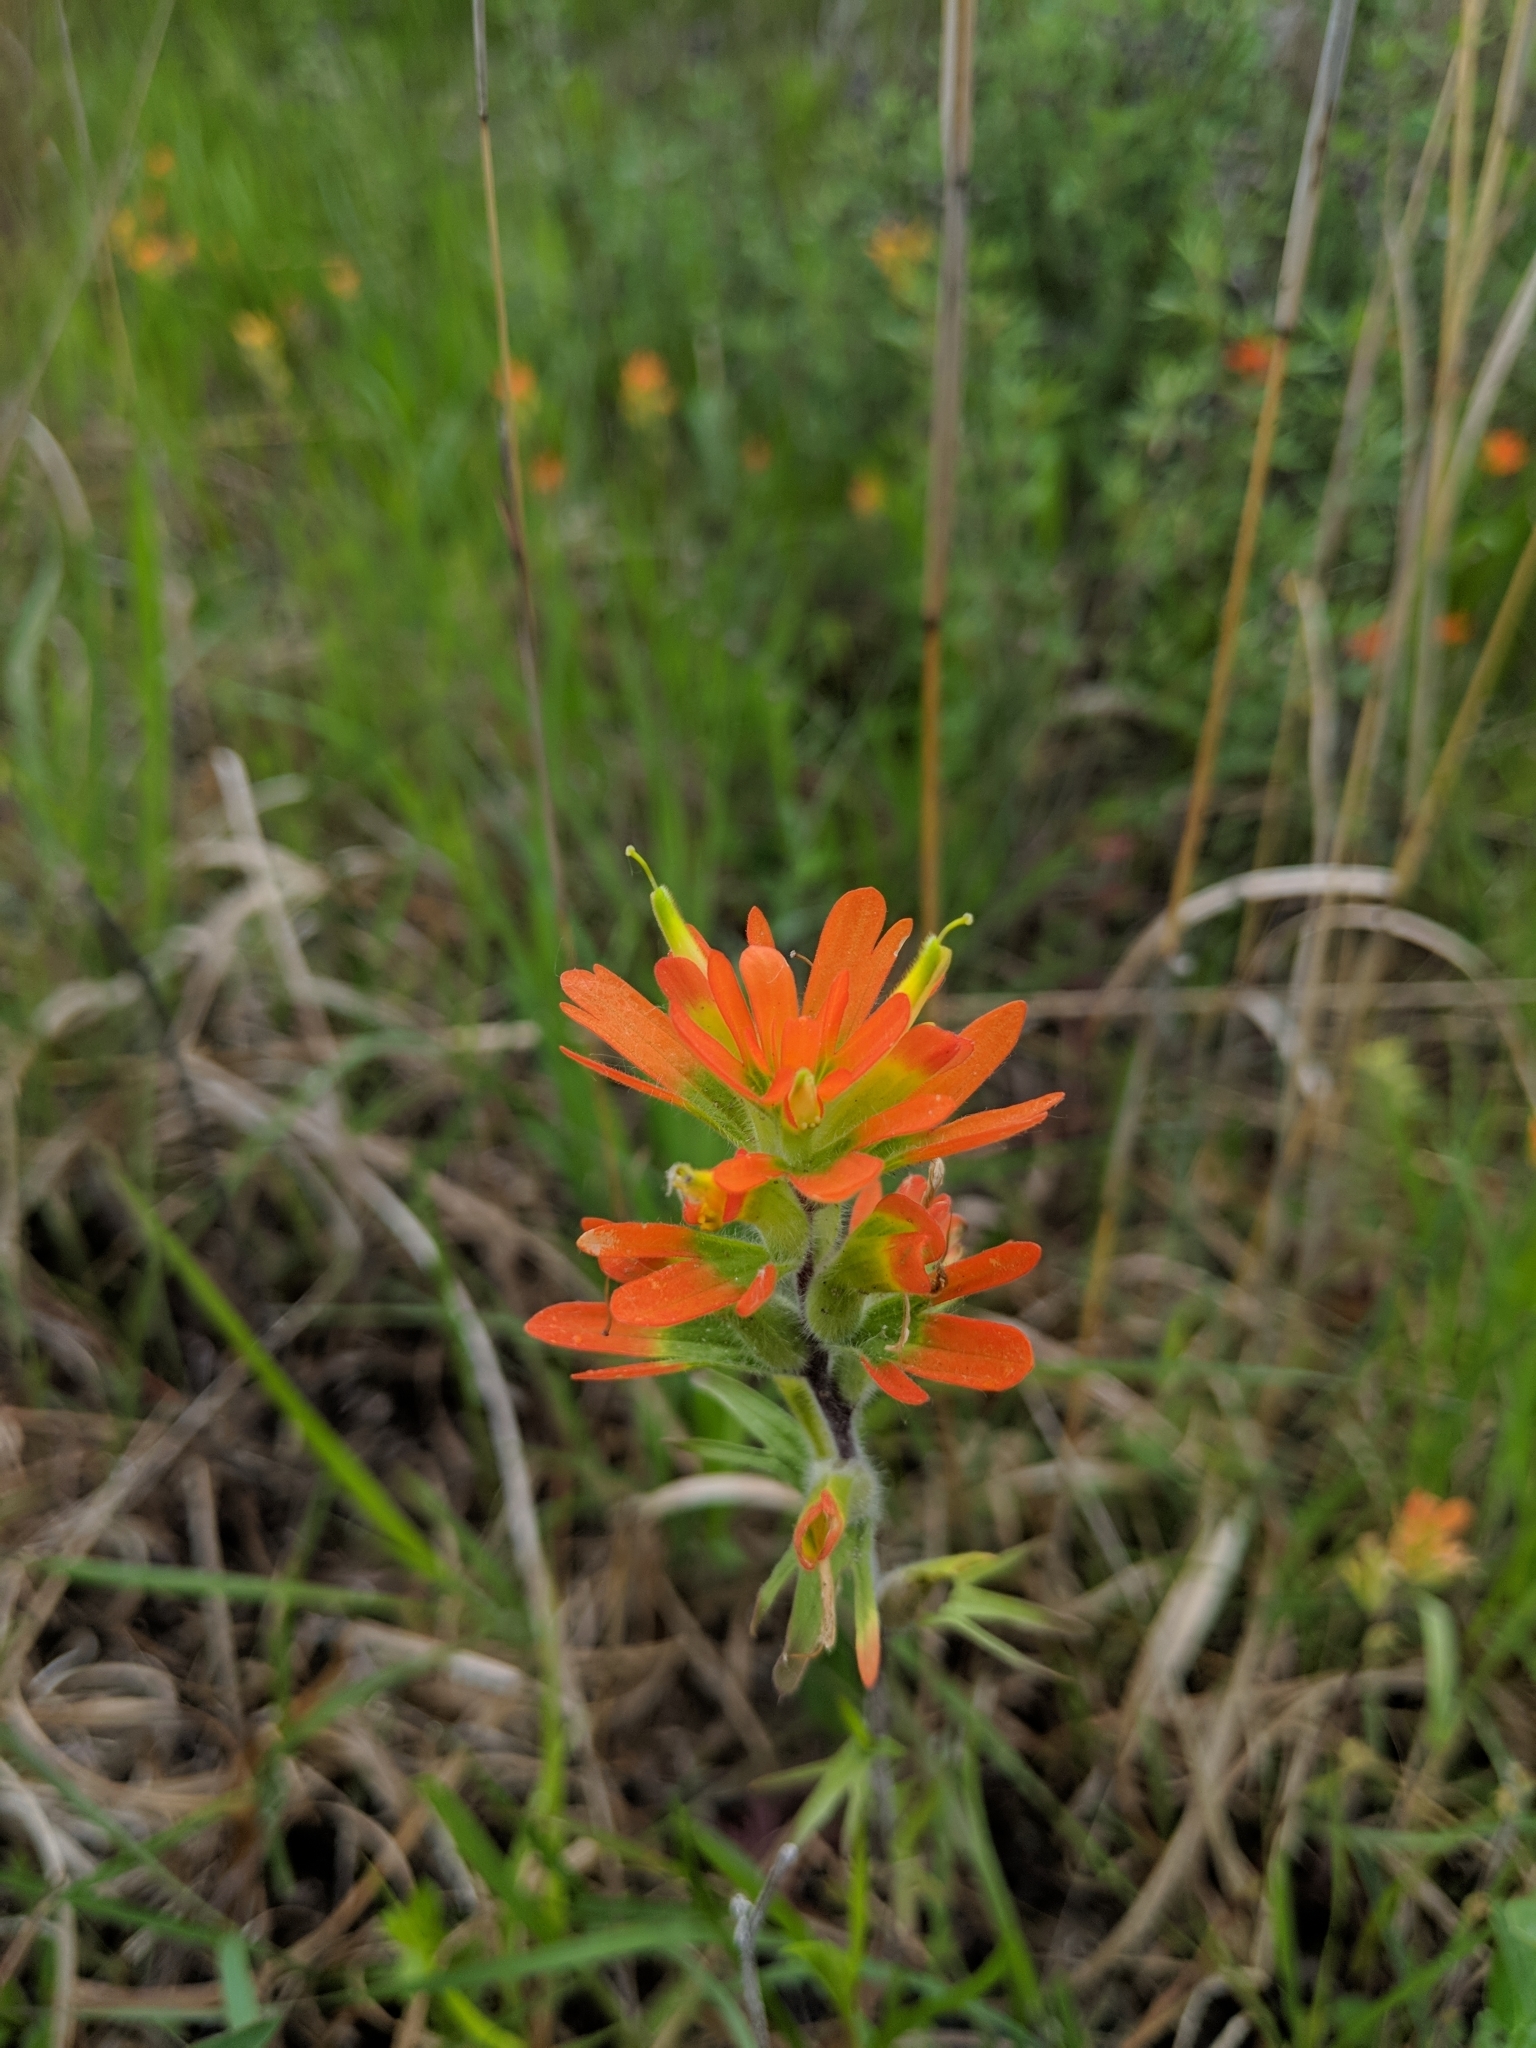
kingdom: Plantae
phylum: Tracheophyta
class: Magnoliopsida
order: Lamiales
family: Orobanchaceae
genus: Castilleja
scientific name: Castilleja coccinea
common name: Scarlet paintbrush
